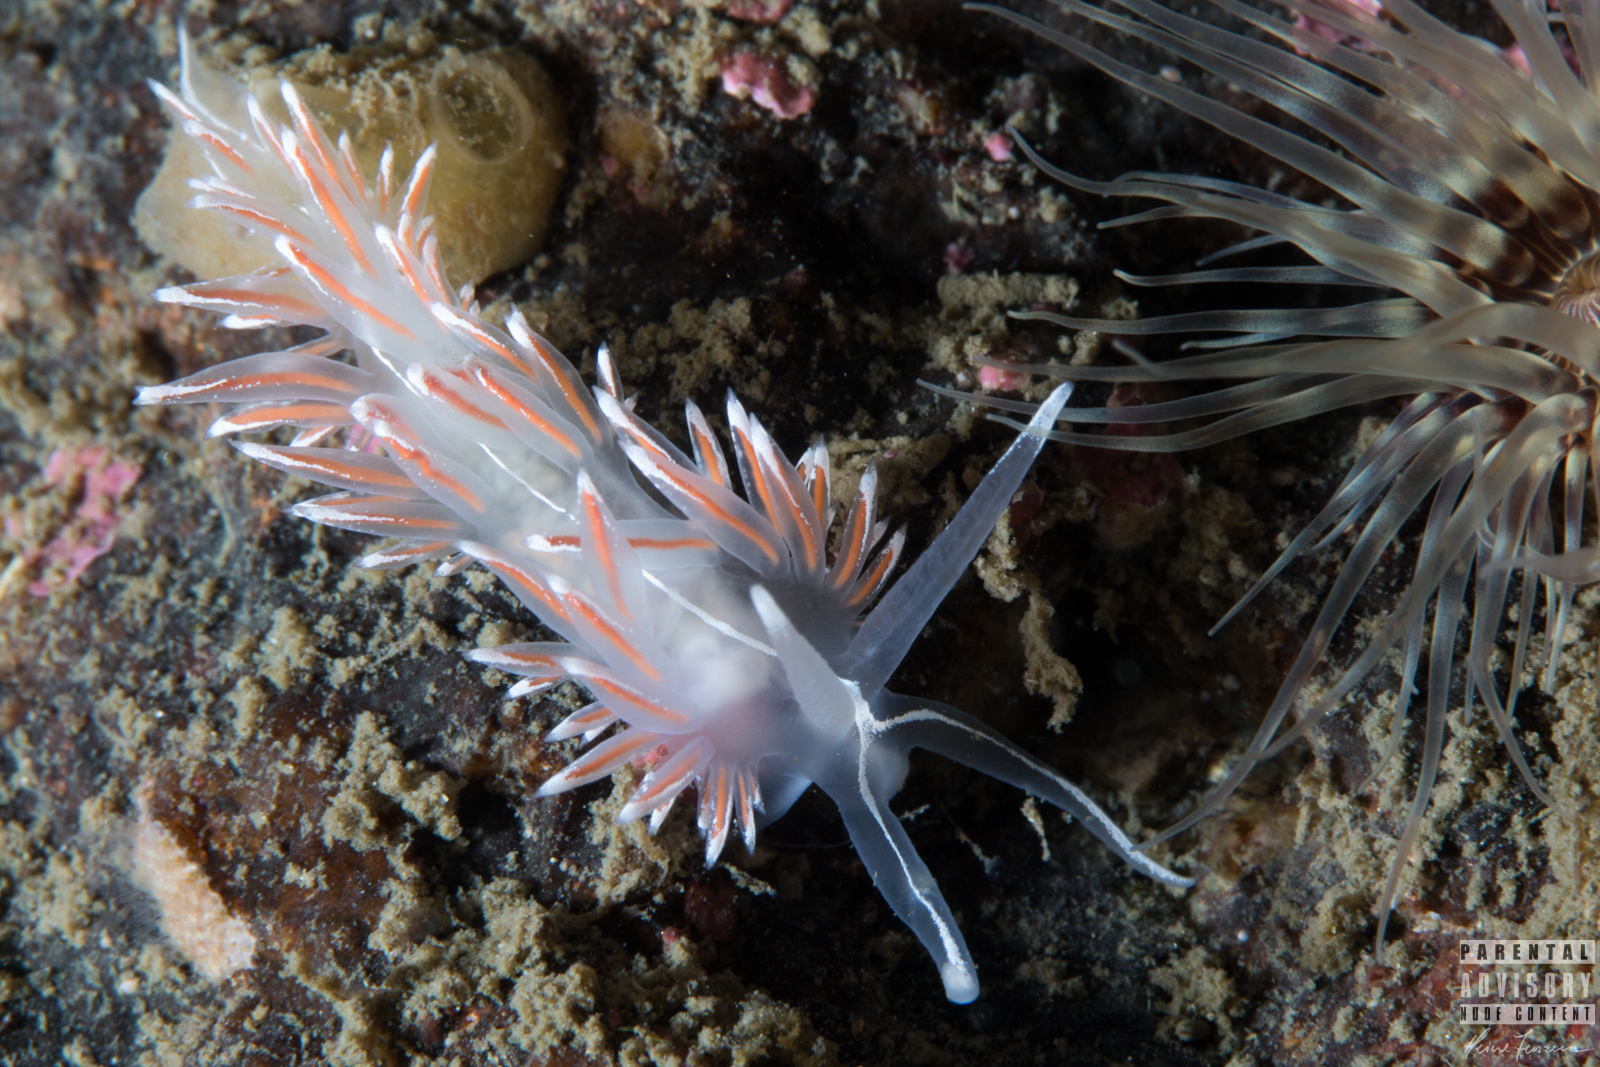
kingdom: Animalia
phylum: Mollusca
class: Gastropoda
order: Nudibranchia
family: Coryphellidae
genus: Coryphella
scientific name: Coryphella lineata
